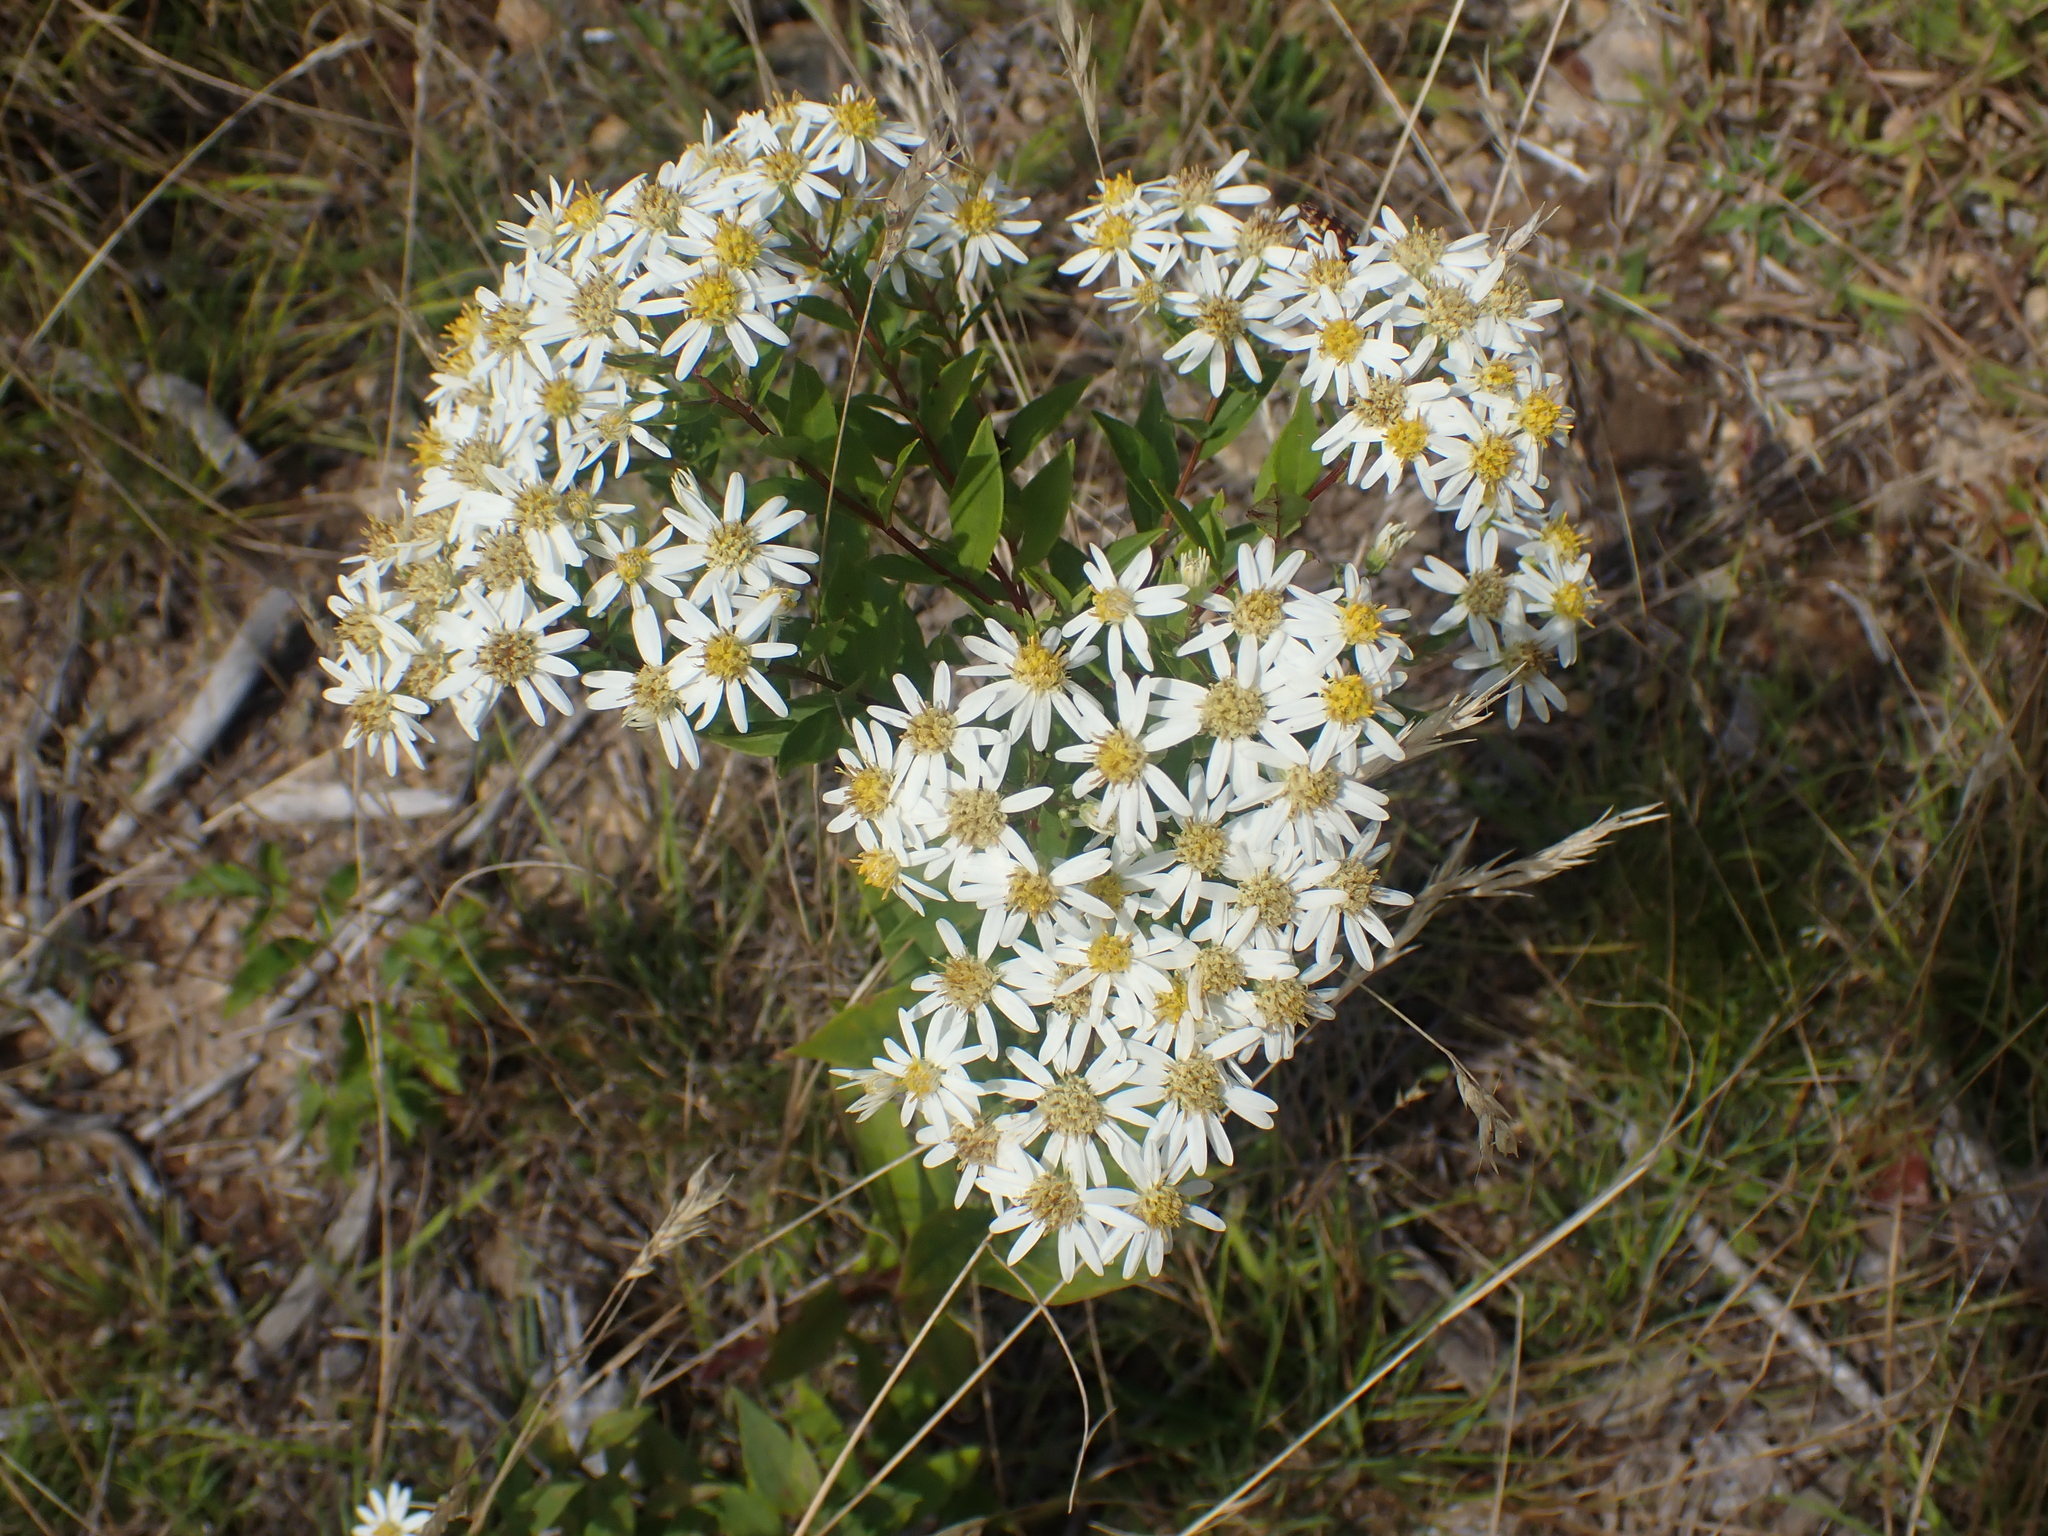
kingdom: Plantae
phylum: Tracheophyta
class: Magnoliopsida
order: Asterales
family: Asteraceae
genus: Doellingeria
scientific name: Doellingeria umbellata
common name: Flat-top white aster
